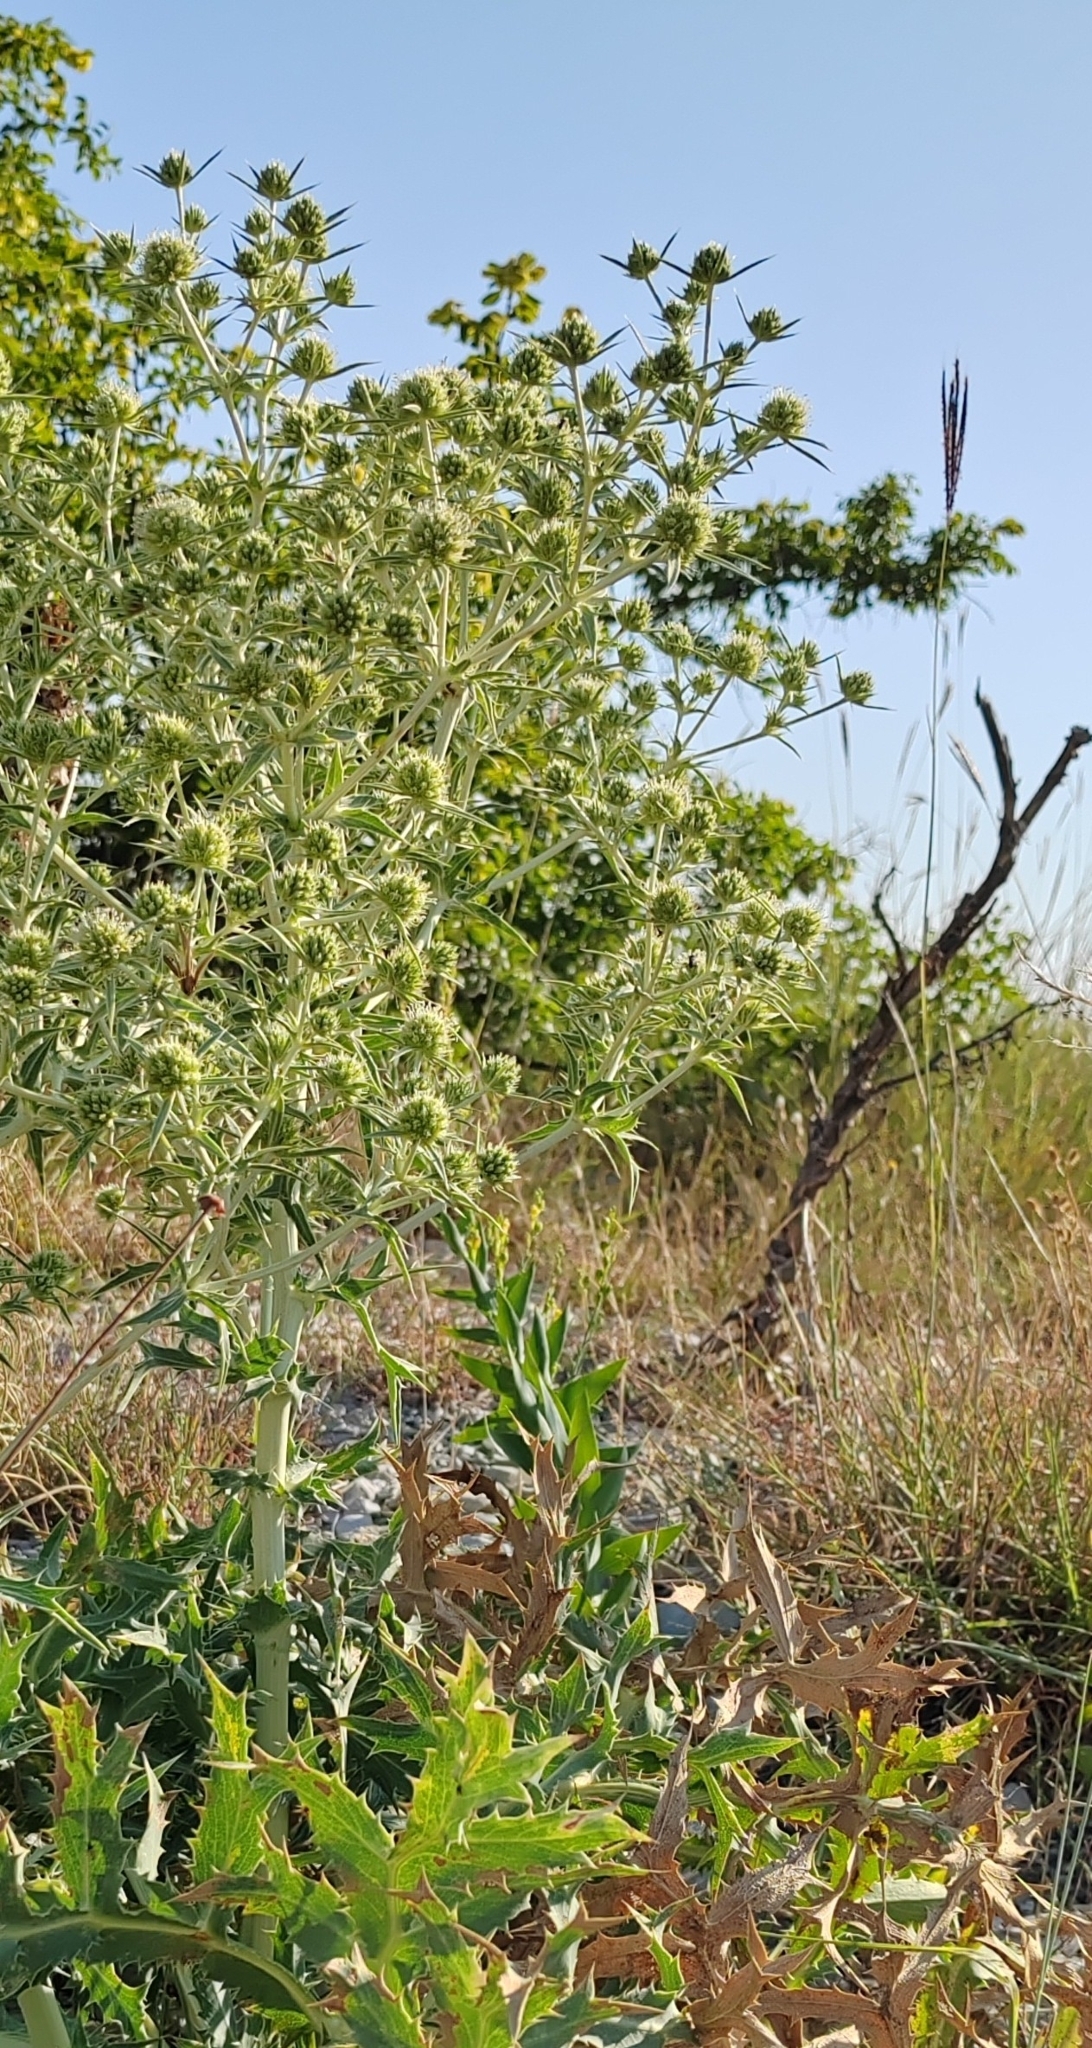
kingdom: Plantae
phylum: Tracheophyta
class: Magnoliopsida
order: Apiales
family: Apiaceae
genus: Eryngium
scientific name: Eryngium campestre
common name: Field eryngo
